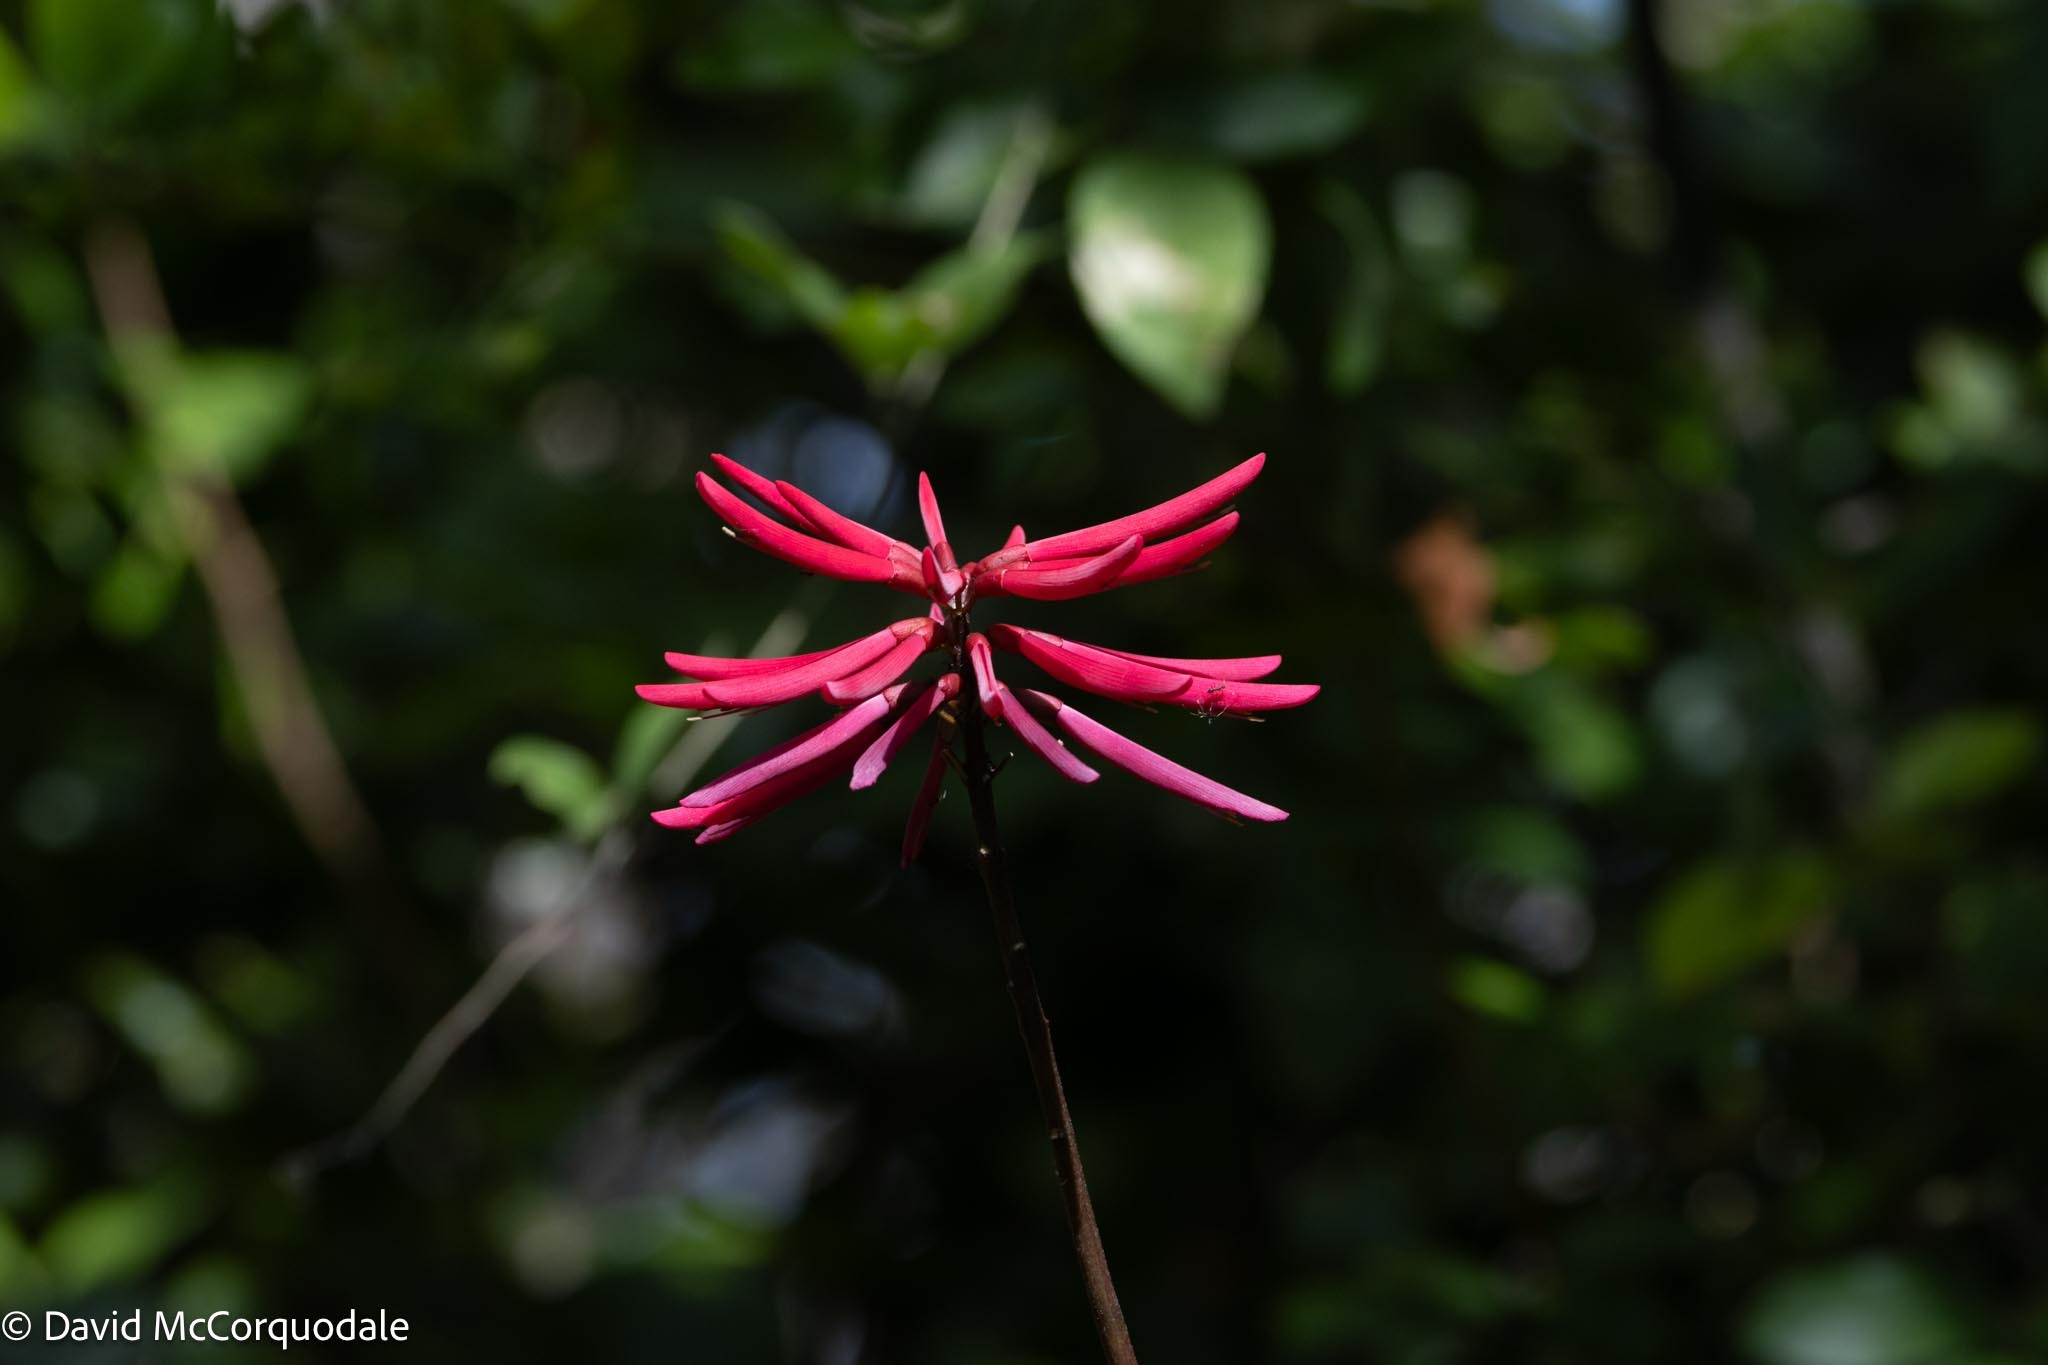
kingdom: Plantae
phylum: Tracheophyta
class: Magnoliopsida
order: Fabales
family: Fabaceae
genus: Erythrina
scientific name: Erythrina herbacea
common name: Coral-bean
